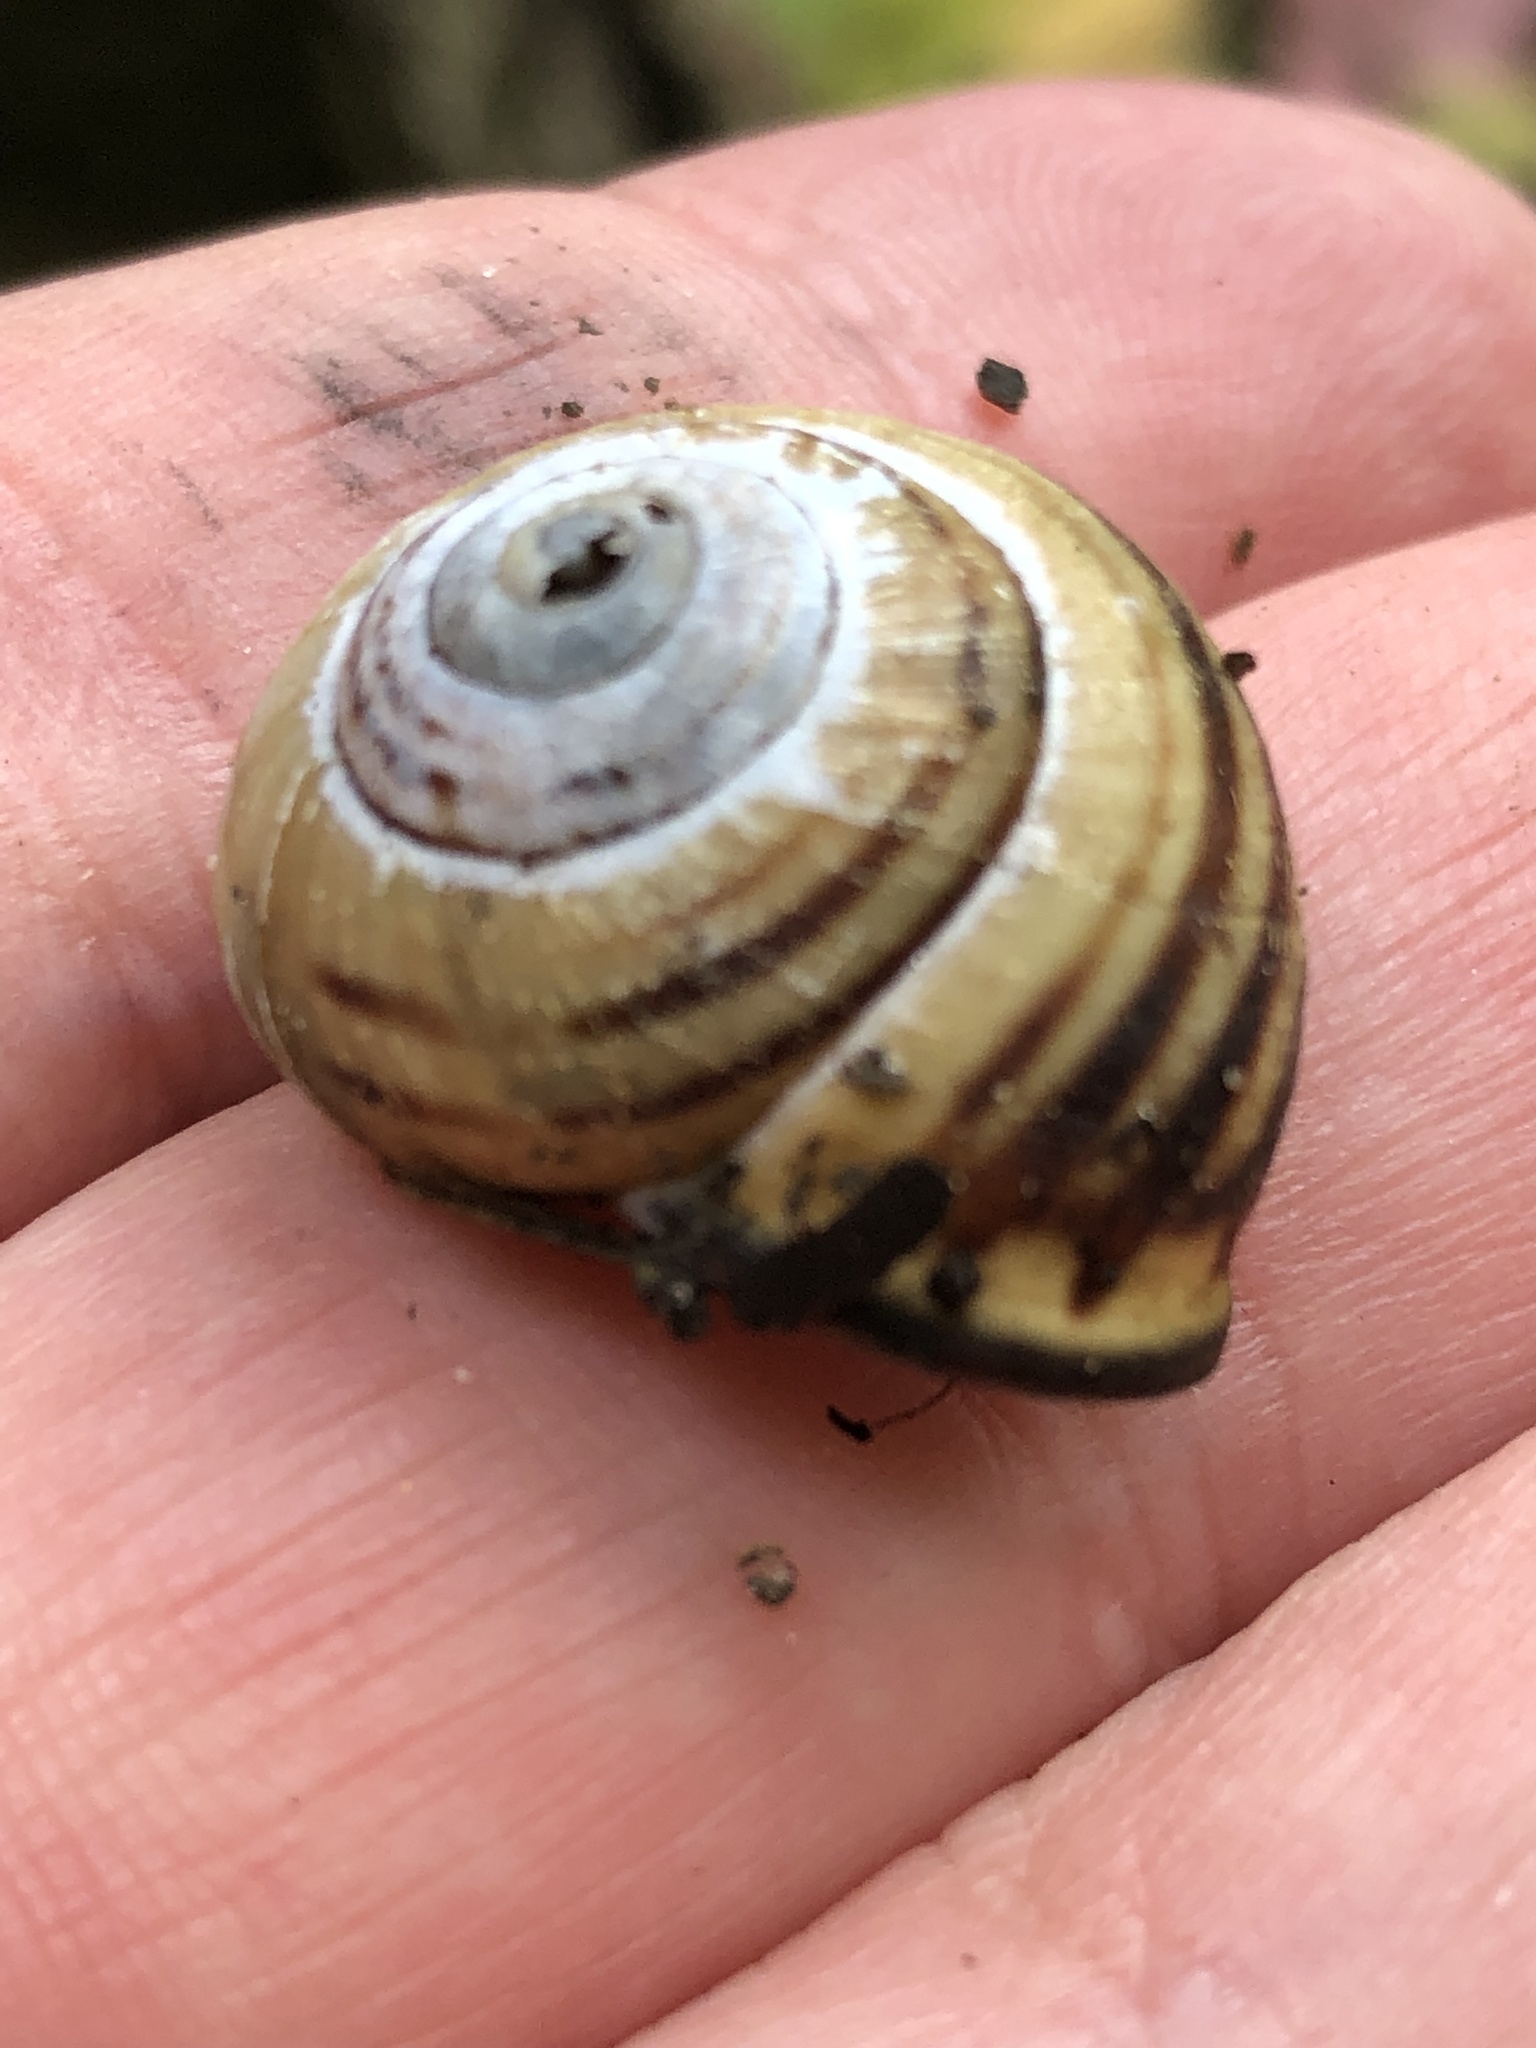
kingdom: Animalia
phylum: Mollusca
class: Gastropoda
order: Stylommatophora
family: Helicidae
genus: Cepaea
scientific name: Cepaea nemoralis
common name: Grovesnail
